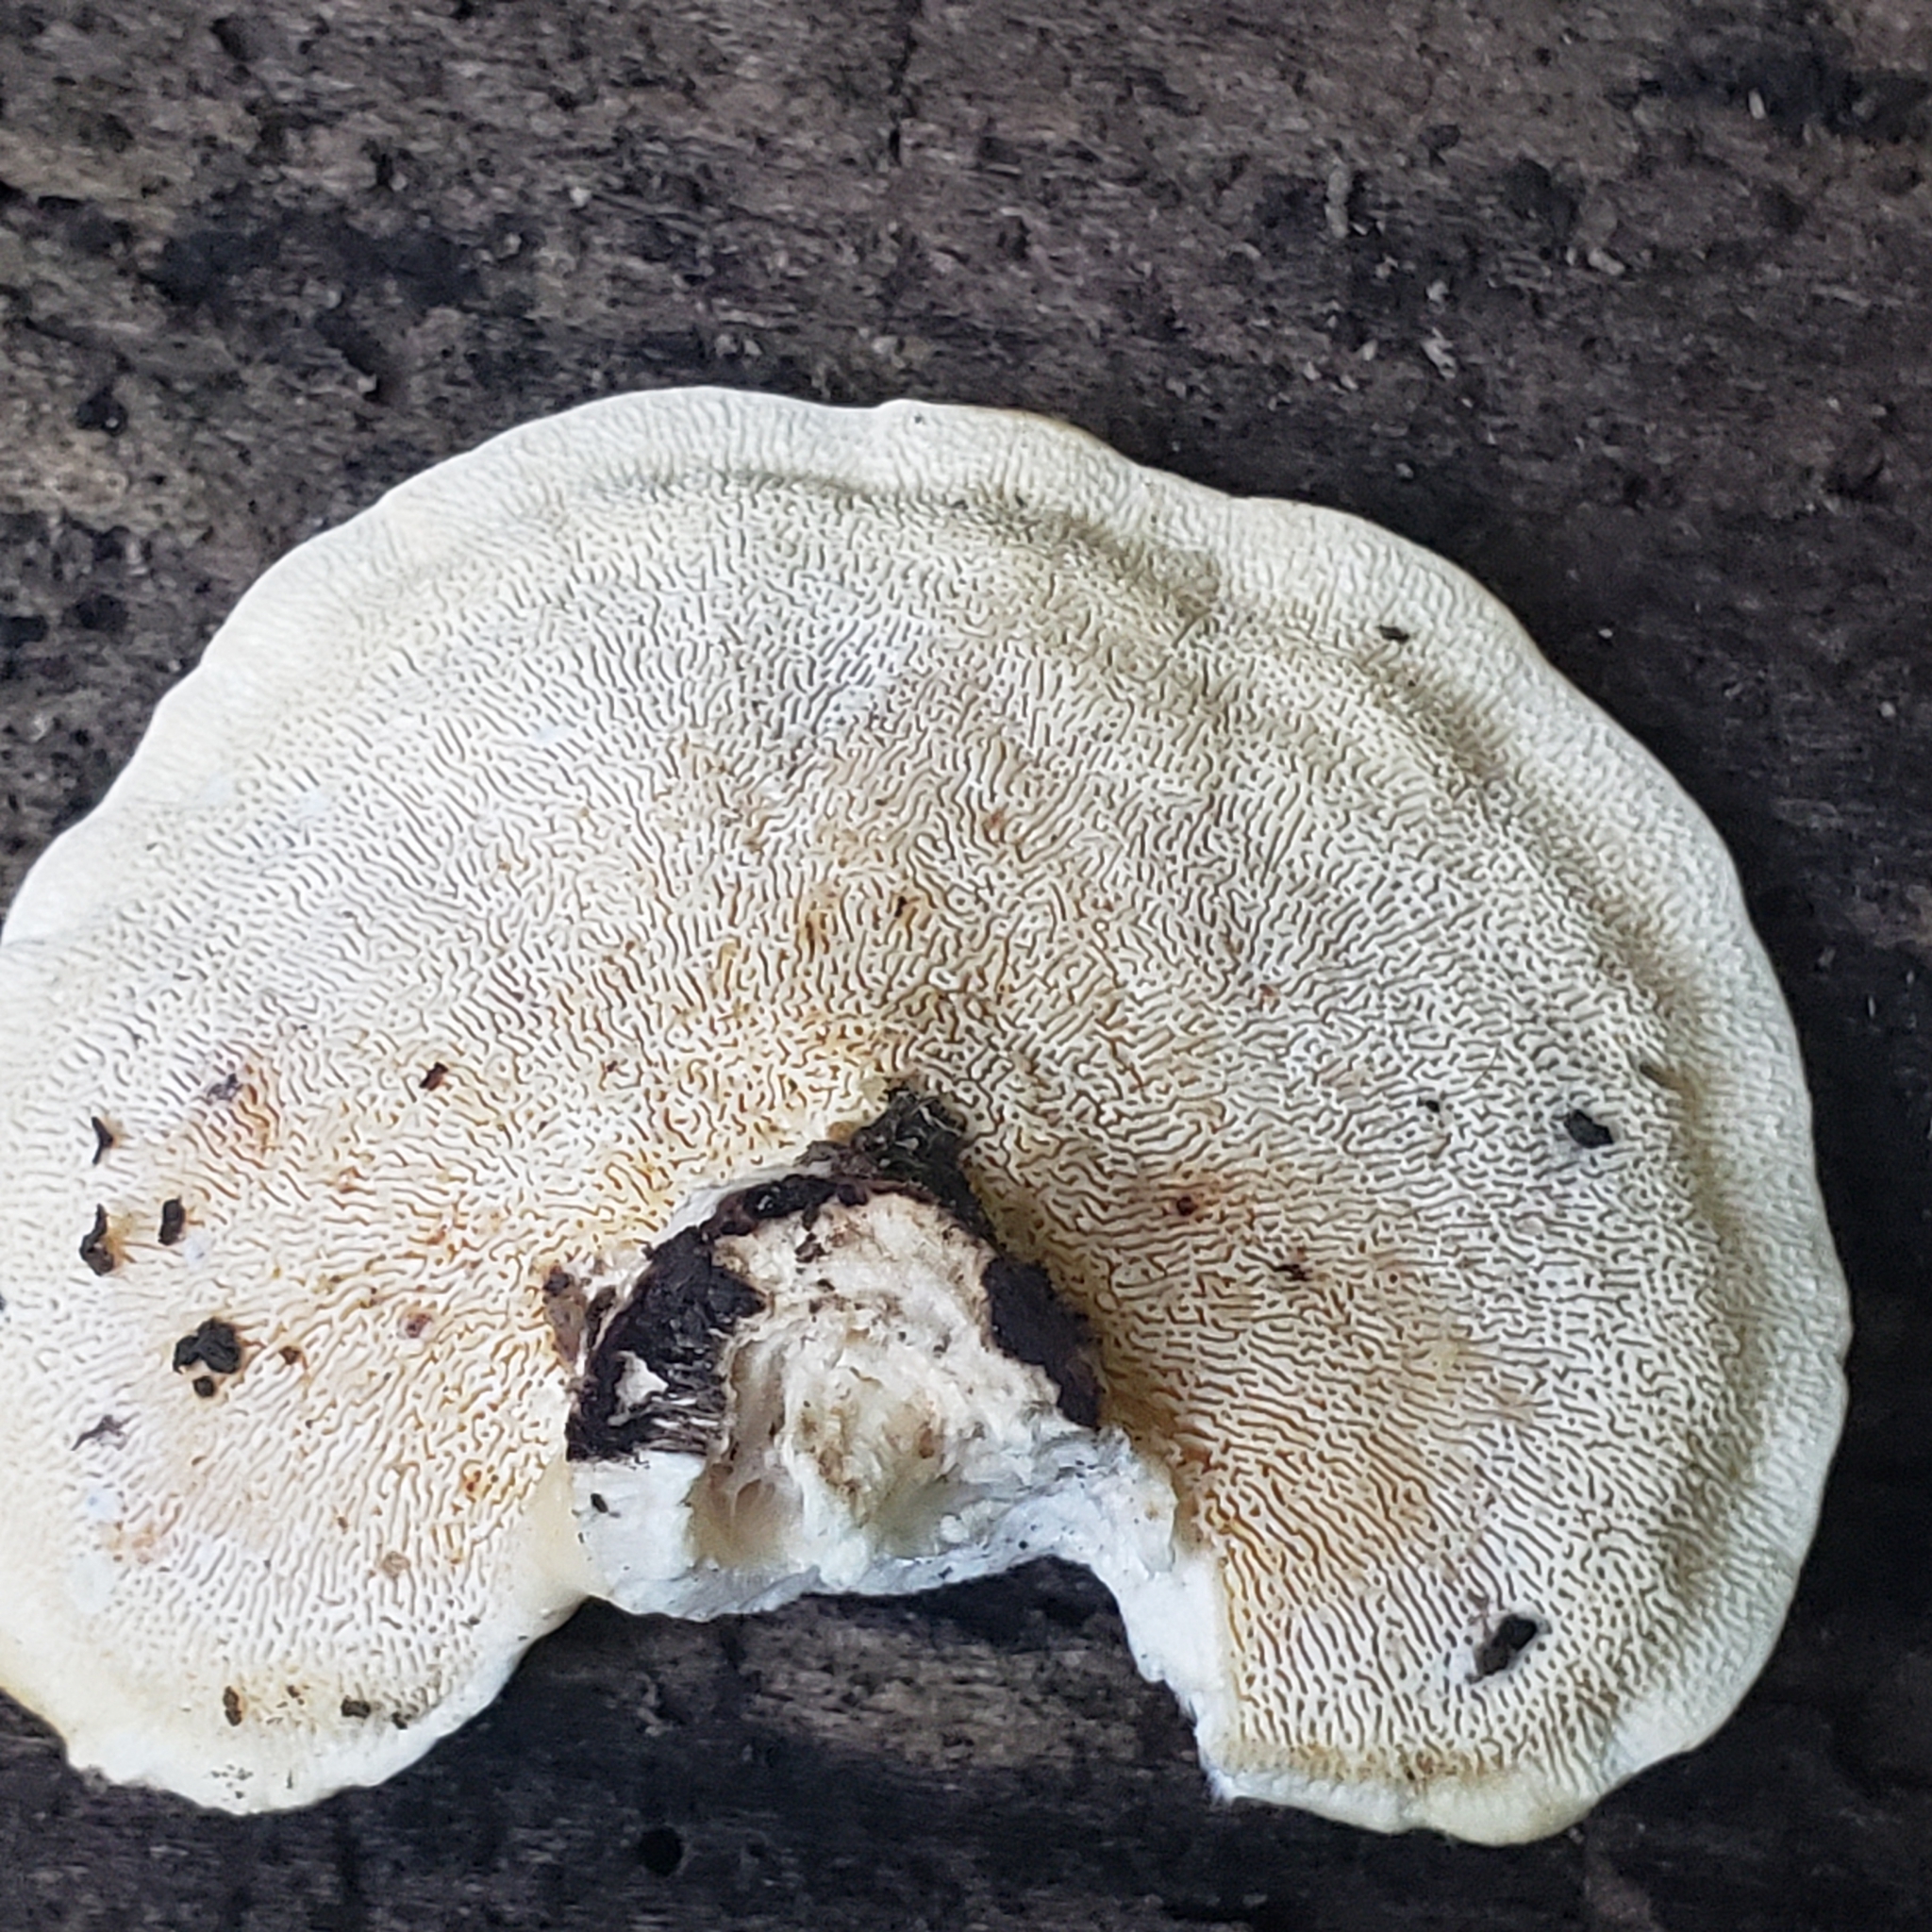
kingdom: Fungi
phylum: Basidiomycota
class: Agaricomycetes
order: Polyporales
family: Polyporaceae
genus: Trametes
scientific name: Trametes
